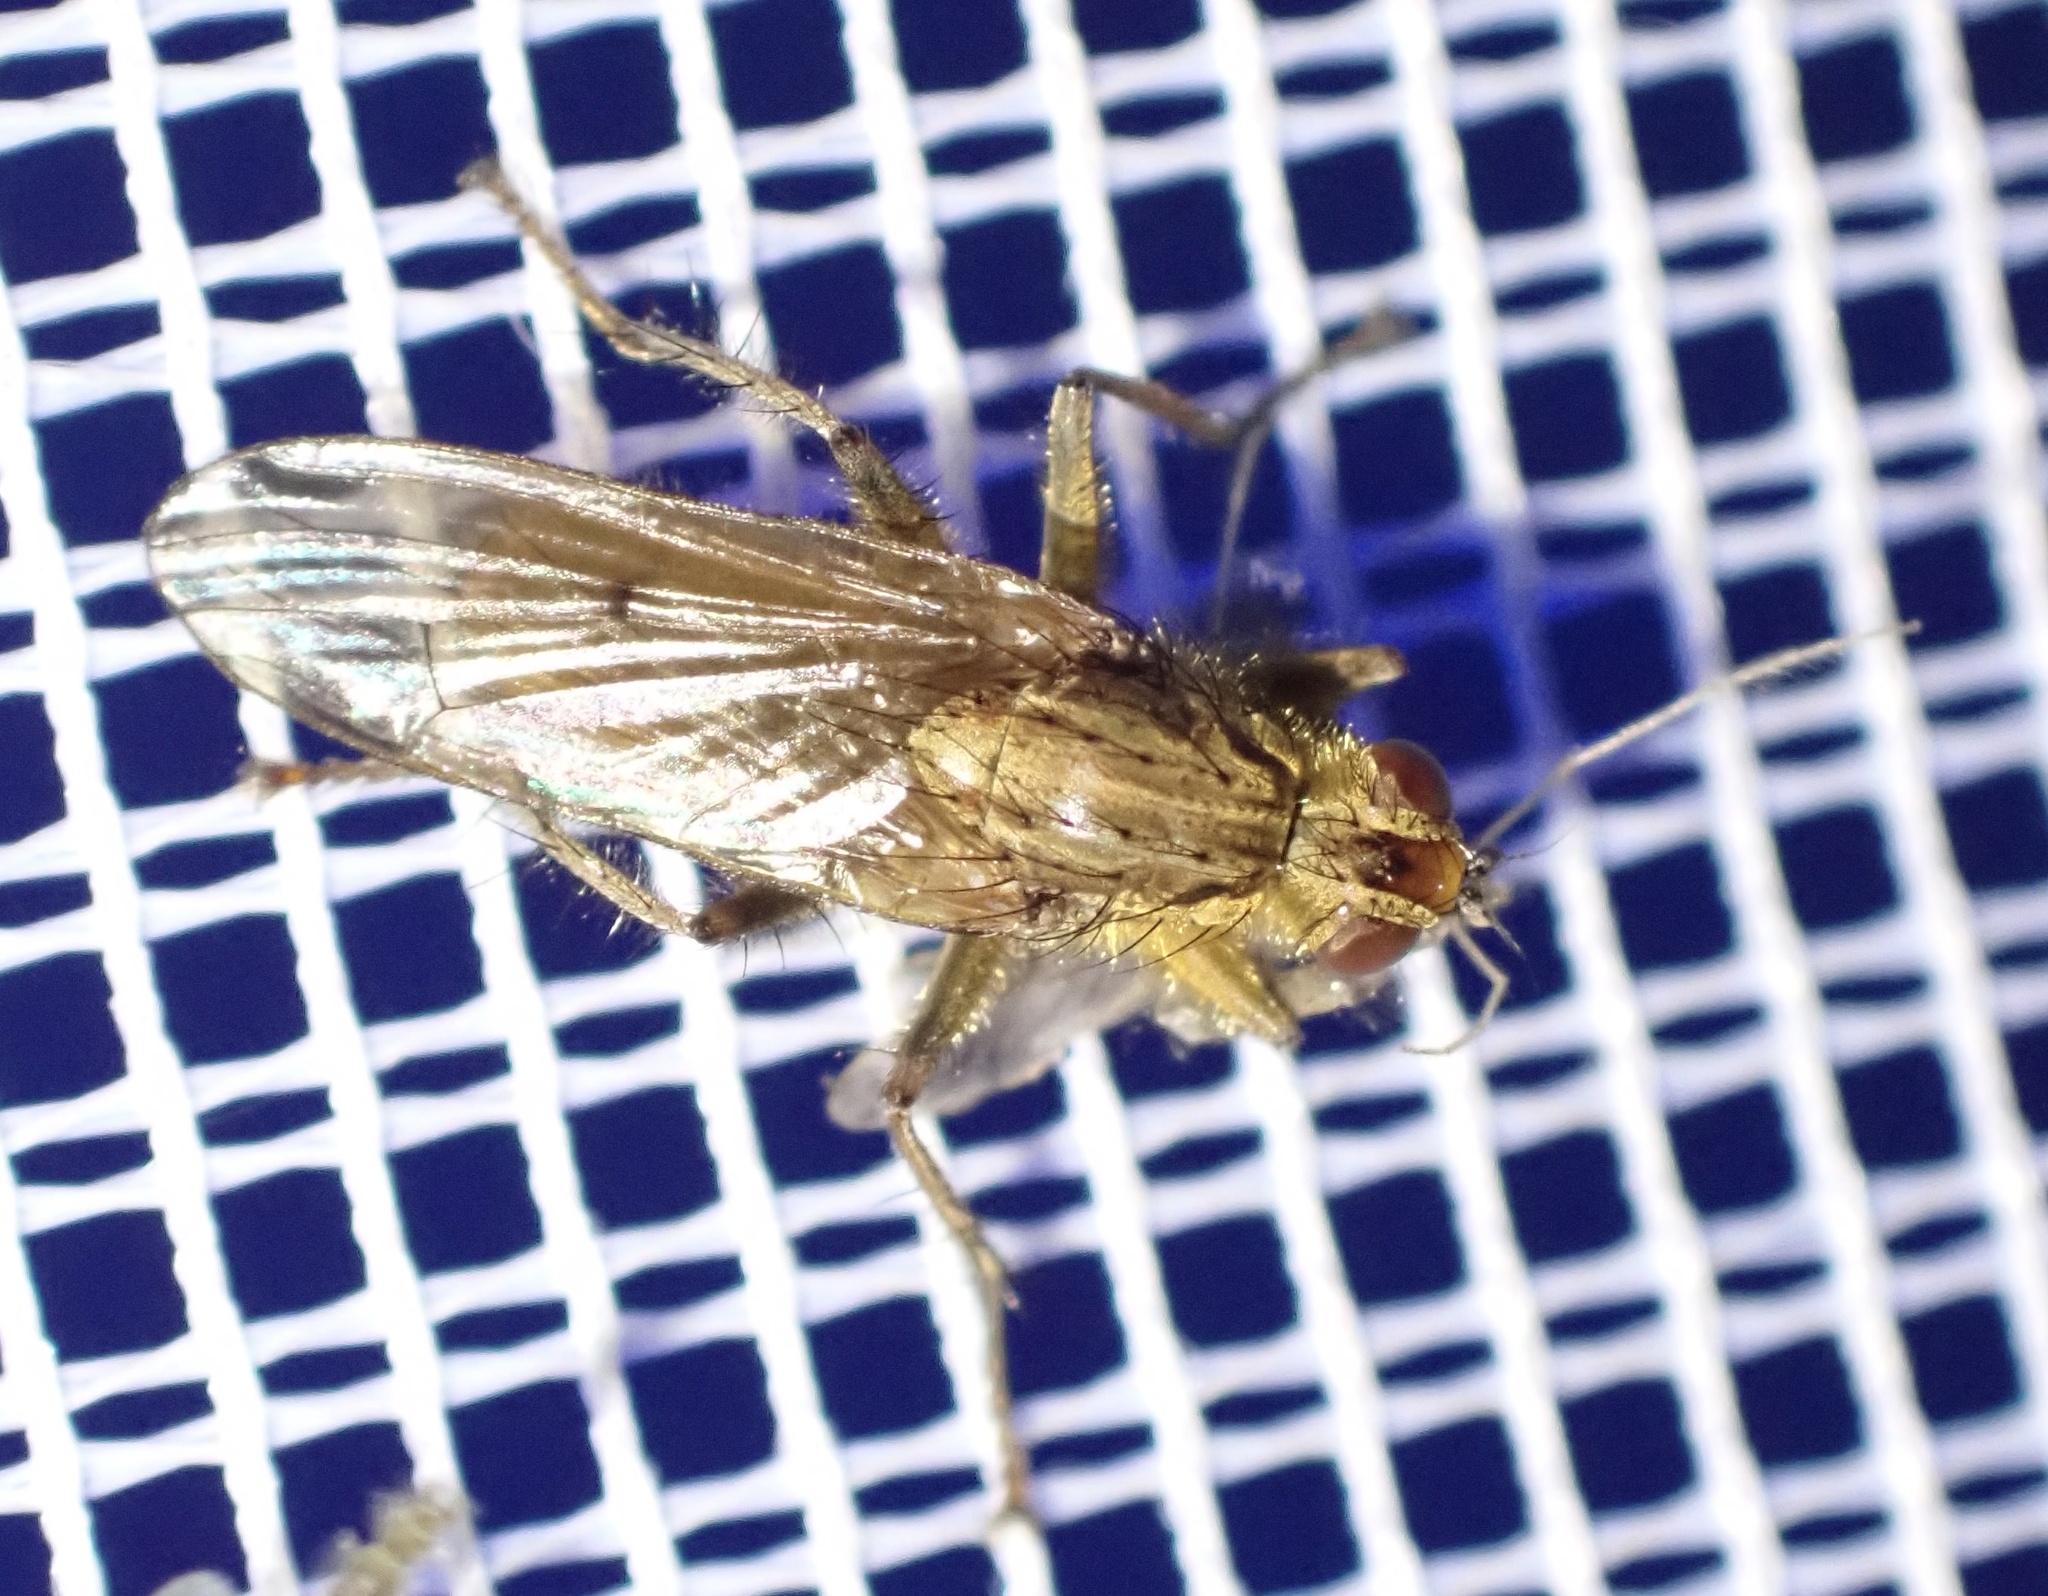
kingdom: Animalia
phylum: Arthropoda
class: Insecta
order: Diptera
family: Scathophagidae
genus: Scathophaga
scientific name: Scathophaga stercoraria
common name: Yellow dung fly
